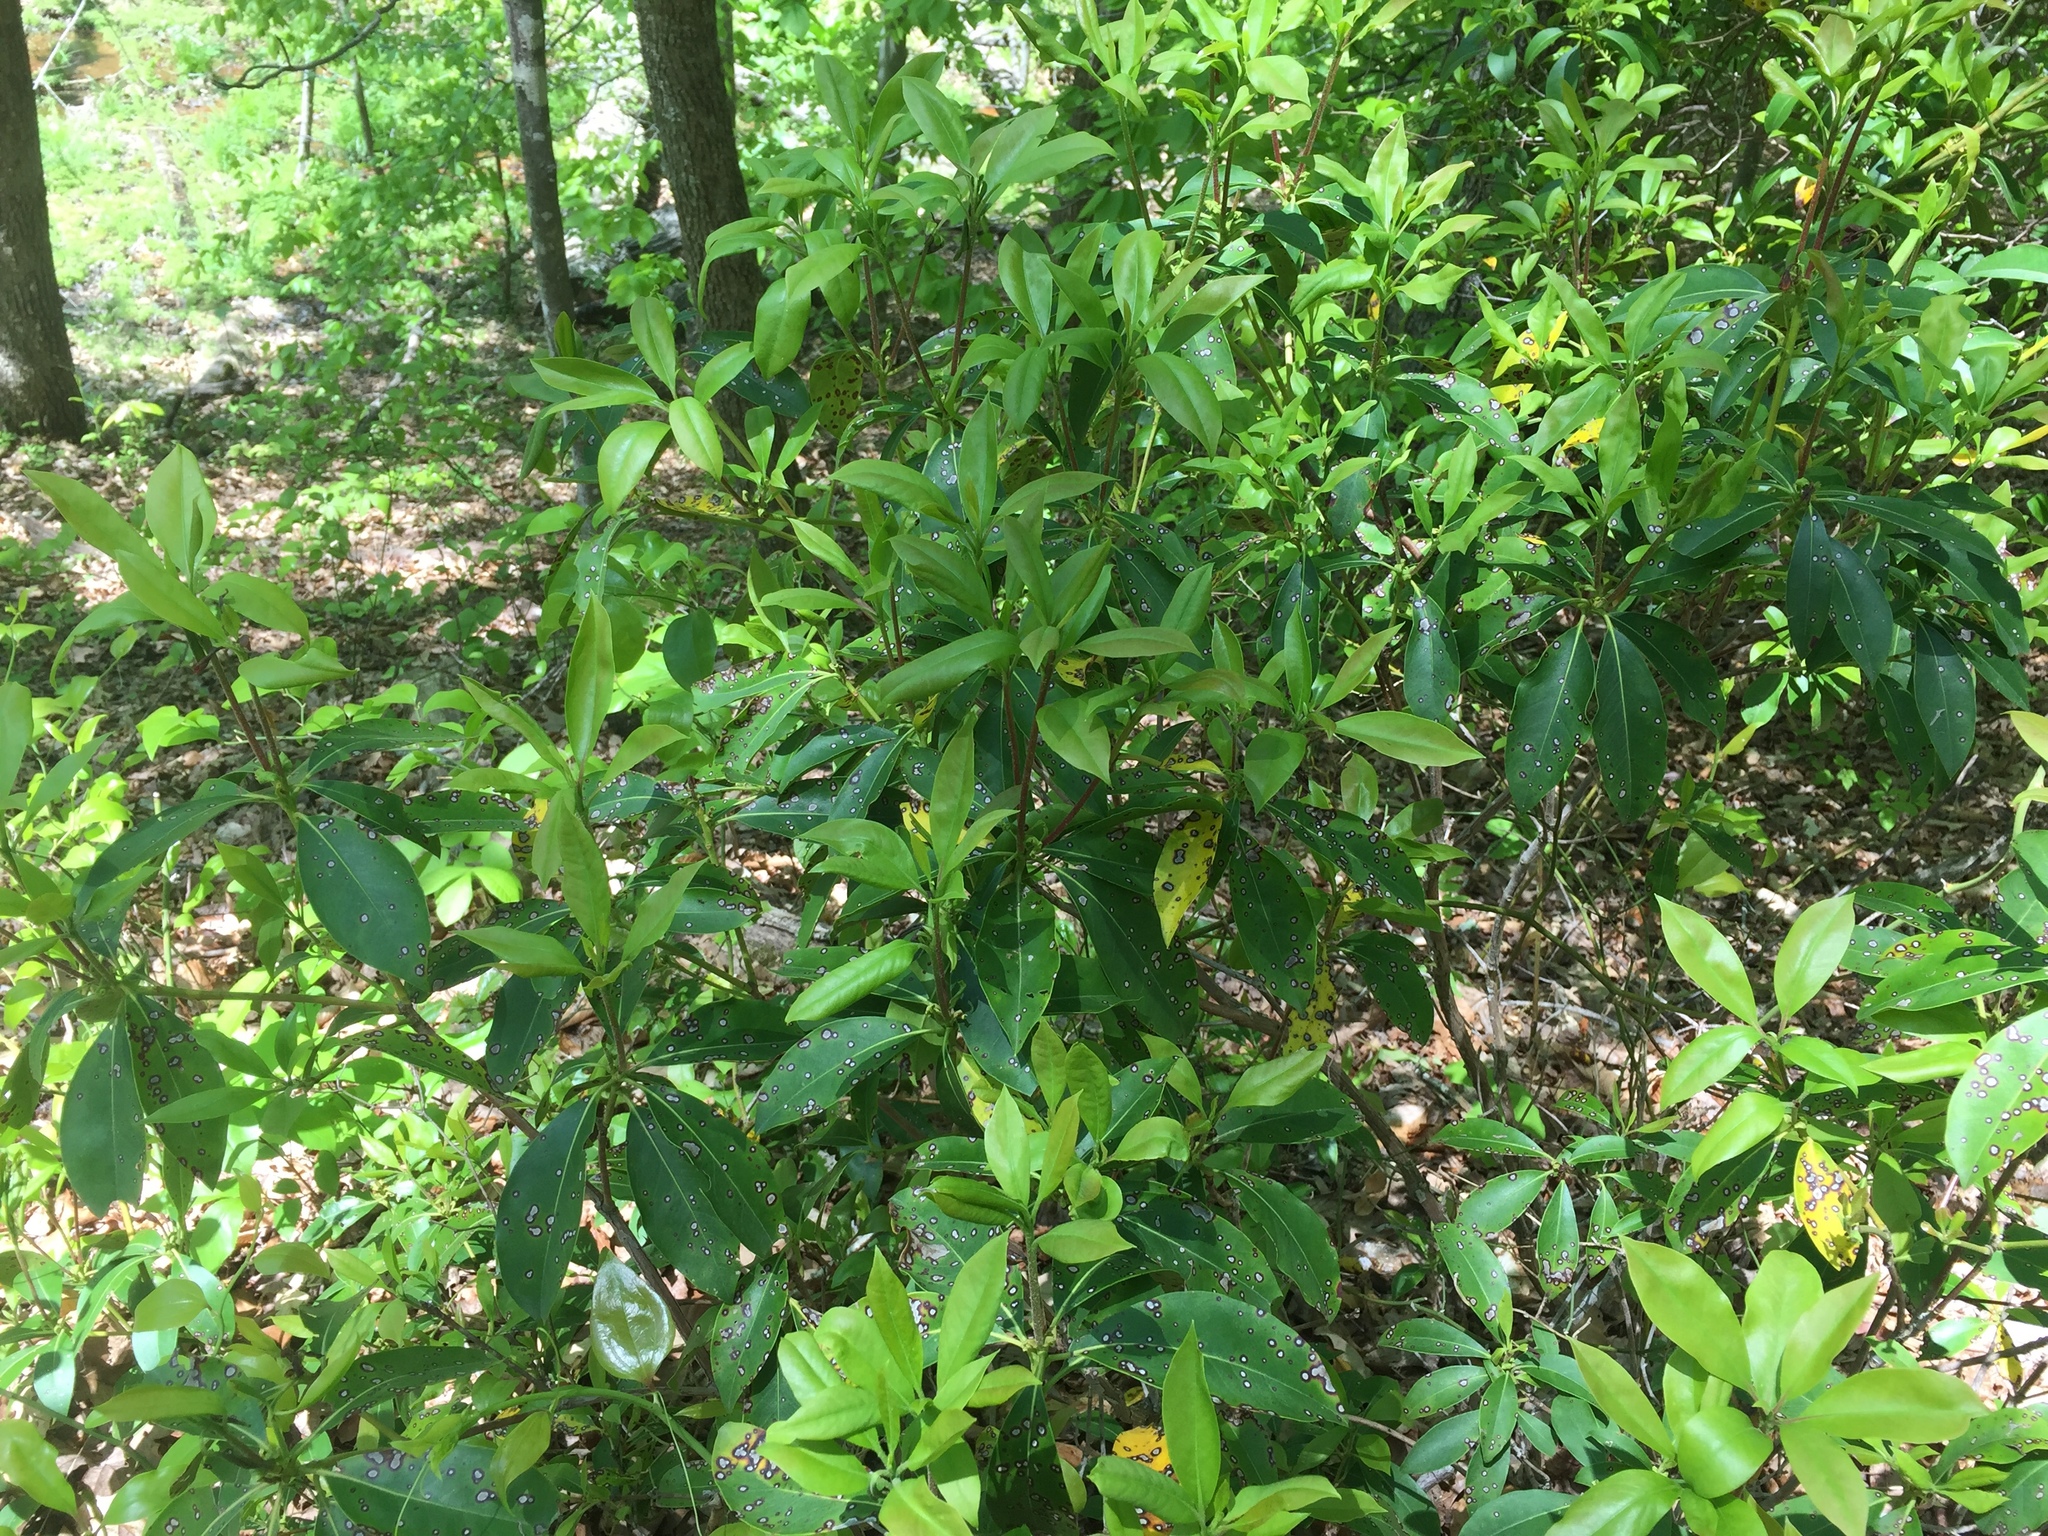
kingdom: Plantae
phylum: Tracheophyta
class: Magnoliopsida
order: Ericales
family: Ericaceae
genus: Kalmia
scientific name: Kalmia latifolia
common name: Mountain-laurel
